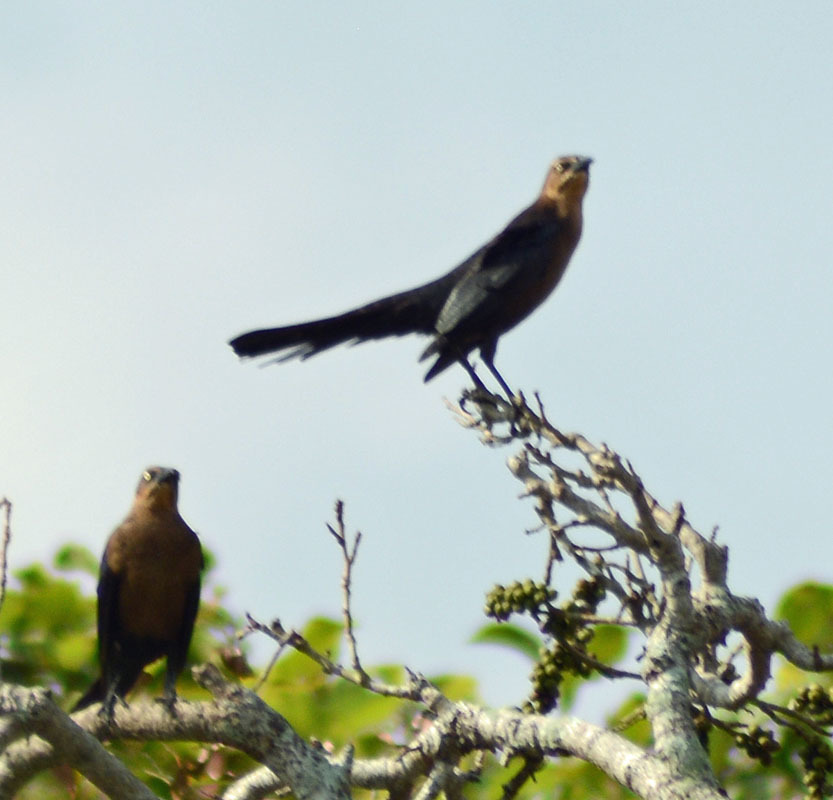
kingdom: Animalia
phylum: Chordata
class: Aves
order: Passeriformes
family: Icteridae
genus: Quiscalus
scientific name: Quiscalus mexicanus
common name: Great-tailed grackle
